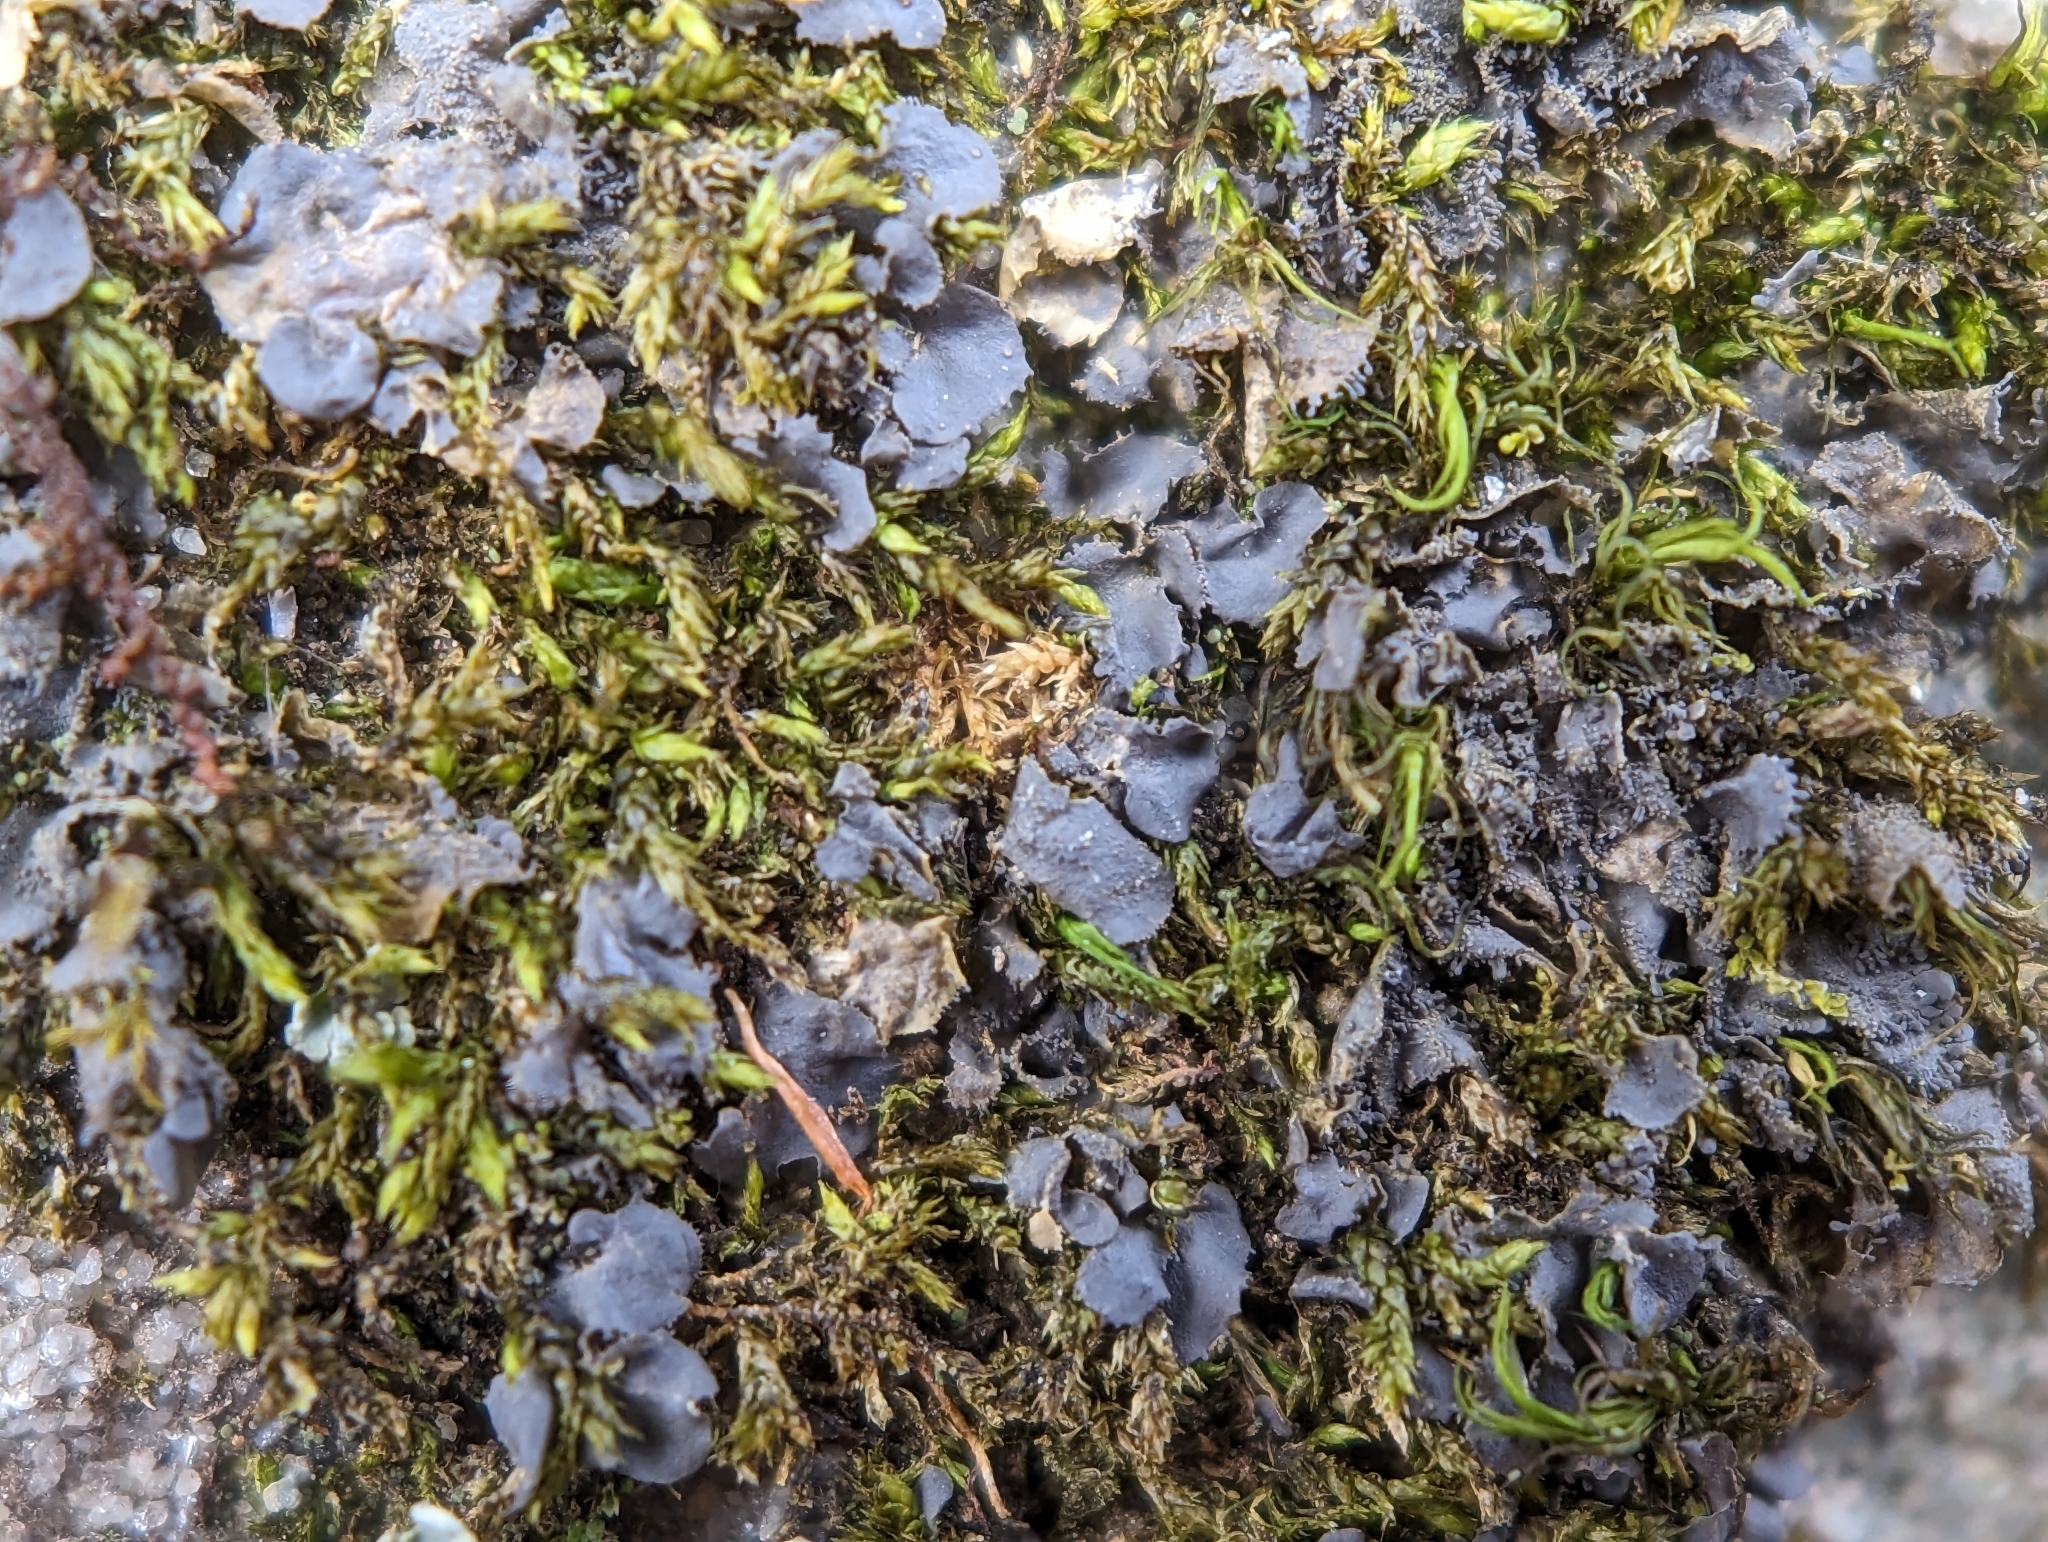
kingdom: Fungi
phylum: Ascomycota
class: Lecanoromycetes
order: Peltigerales
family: Collemataceae
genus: Leptogium
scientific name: Leptogium cyanescens
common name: Blue jellyskin
